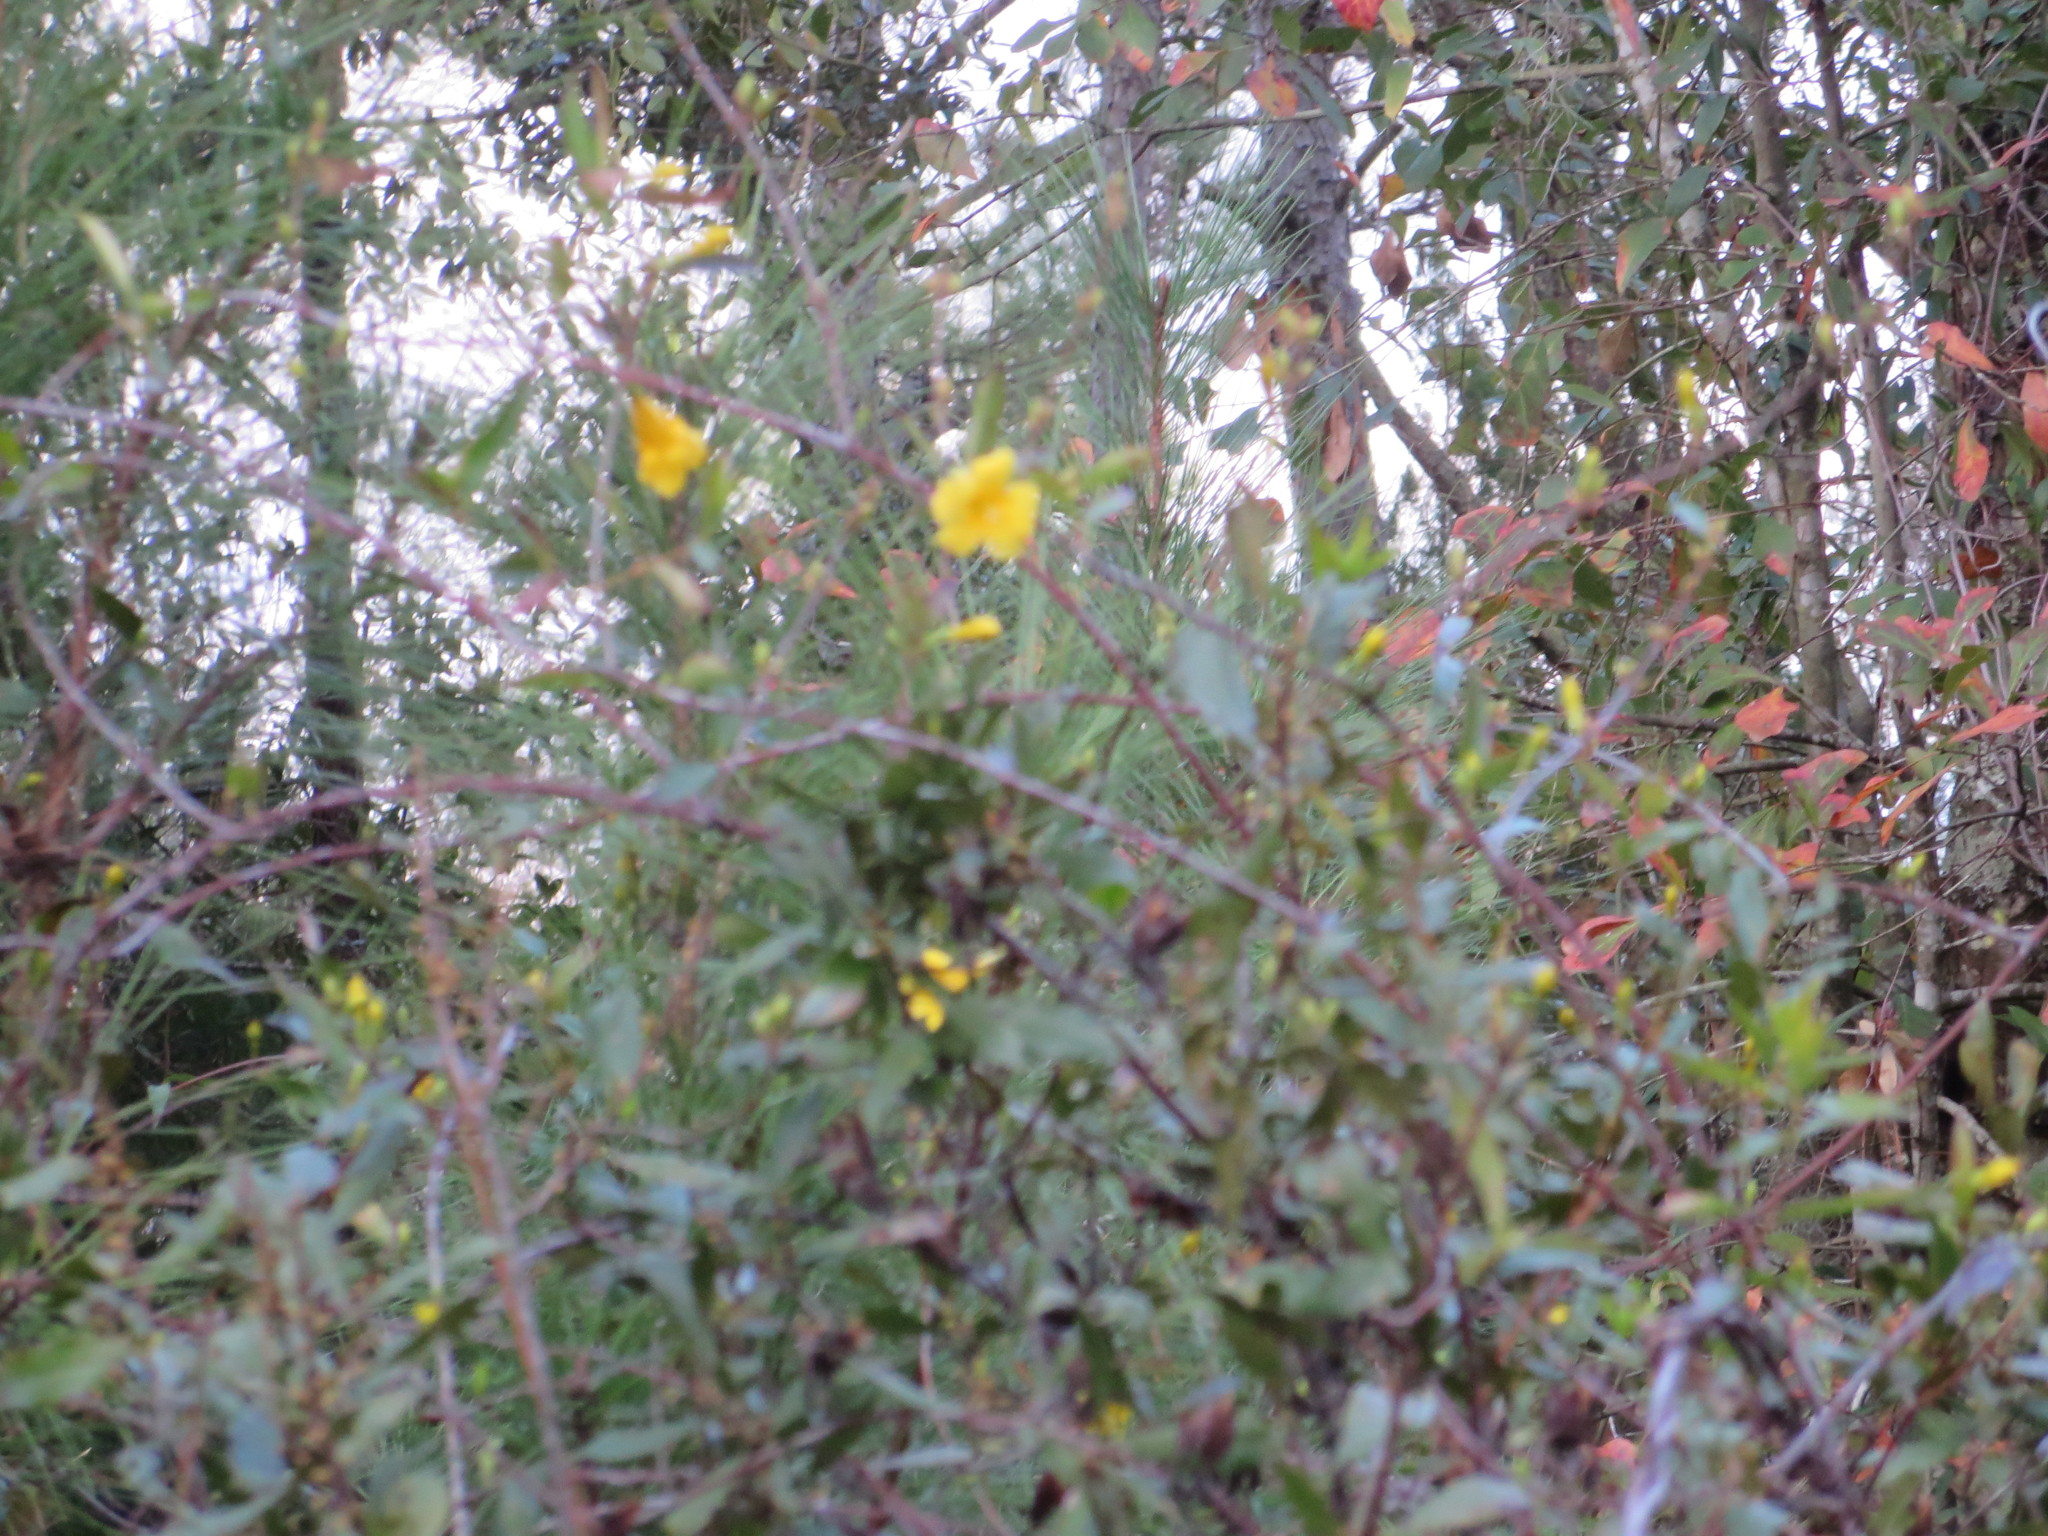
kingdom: Plantae
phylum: Tracheophyta
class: Magnoliopsida
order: Gentianales
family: Gelsemiaceae
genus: Gelsemium
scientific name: Gelsemium sempervirens
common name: Carolina-jasmine
